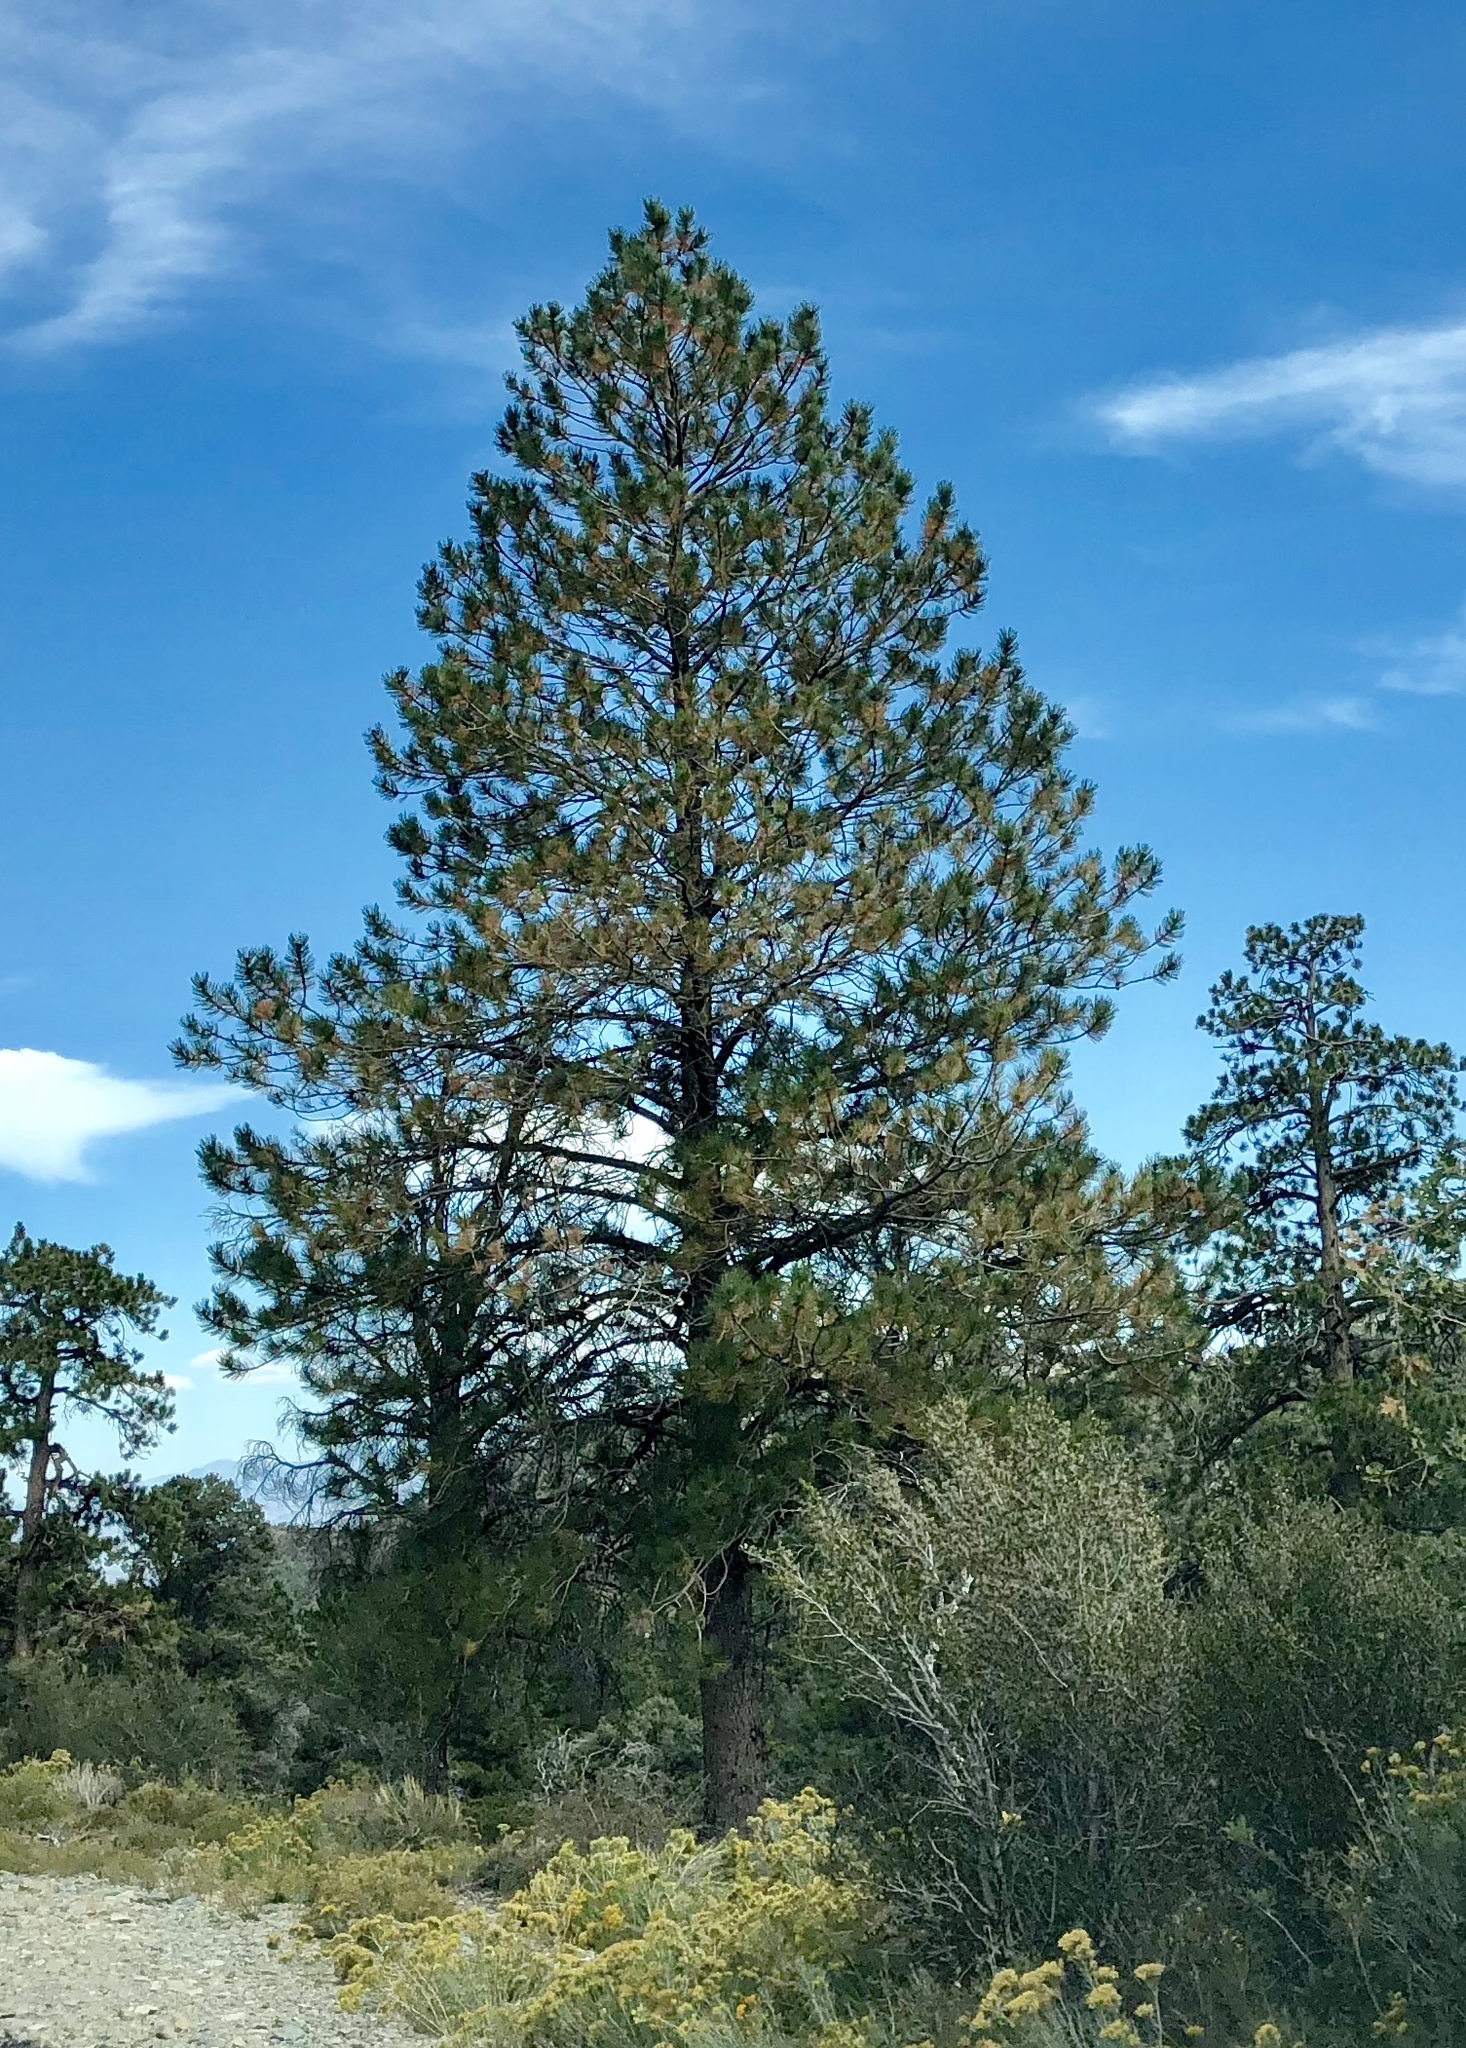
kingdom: Plantae
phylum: Tracheophyta
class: Pinopsida
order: Pinales
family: Pinaceae
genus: Pinus
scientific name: Pinus ponderosa
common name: Western yellow-pine
